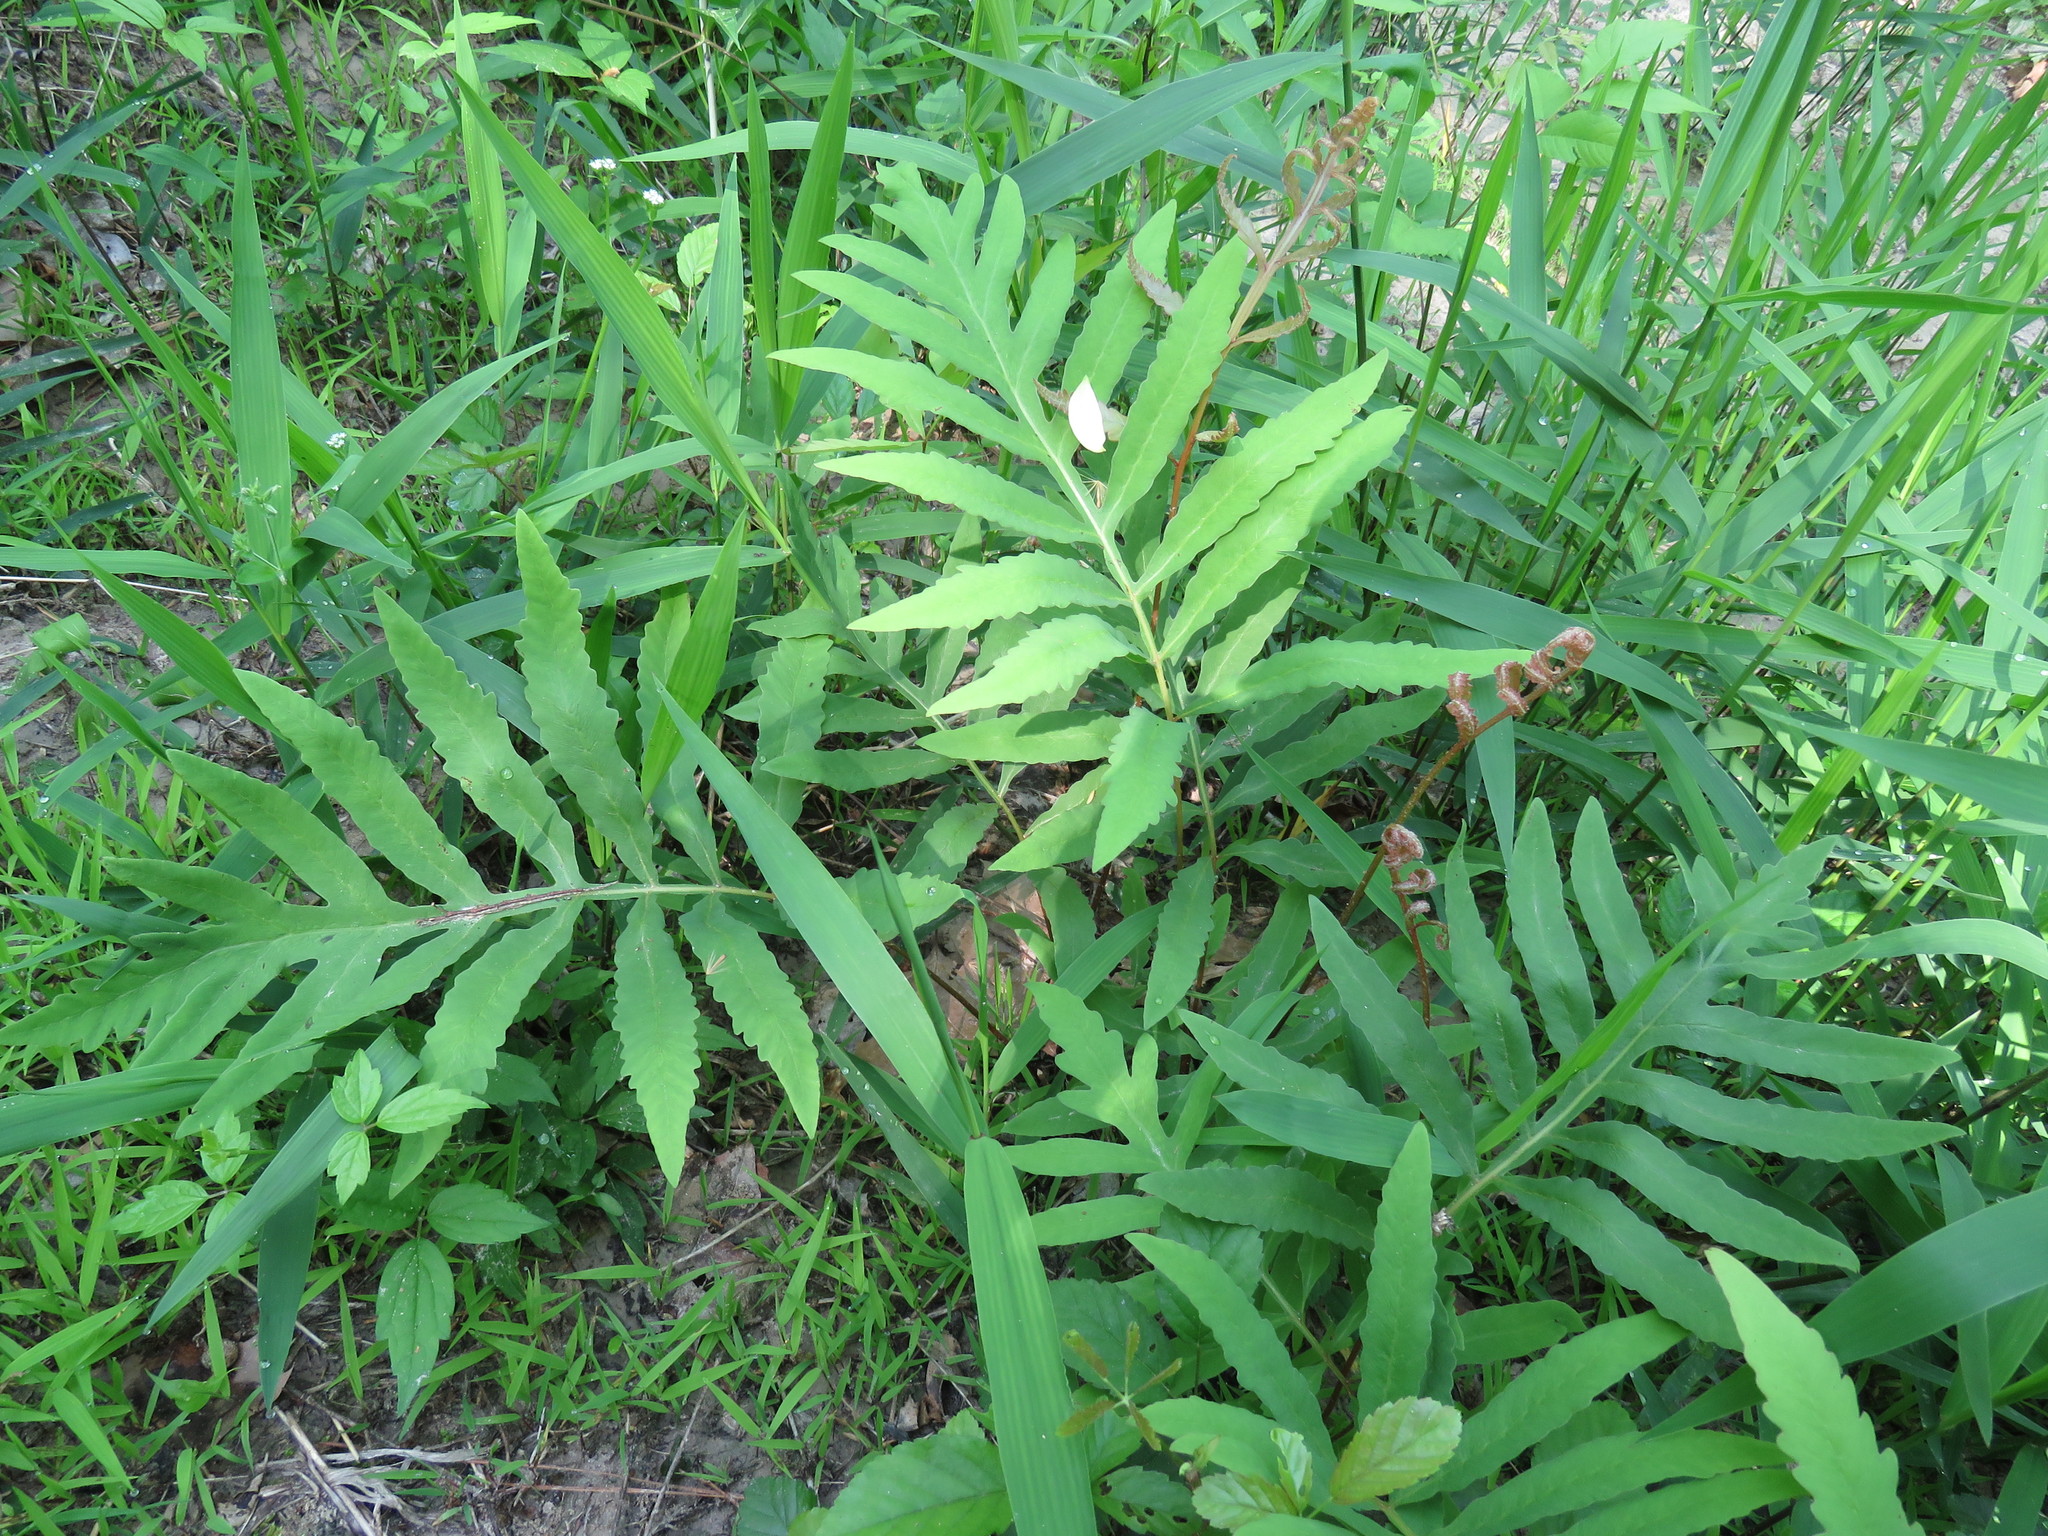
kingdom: Plantae
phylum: Tracheophyta
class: Polypodiopsida
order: Polypodiales
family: Onocleaceae
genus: Onoclea
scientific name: Onoclea sensibilis
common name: Sensitive fern
